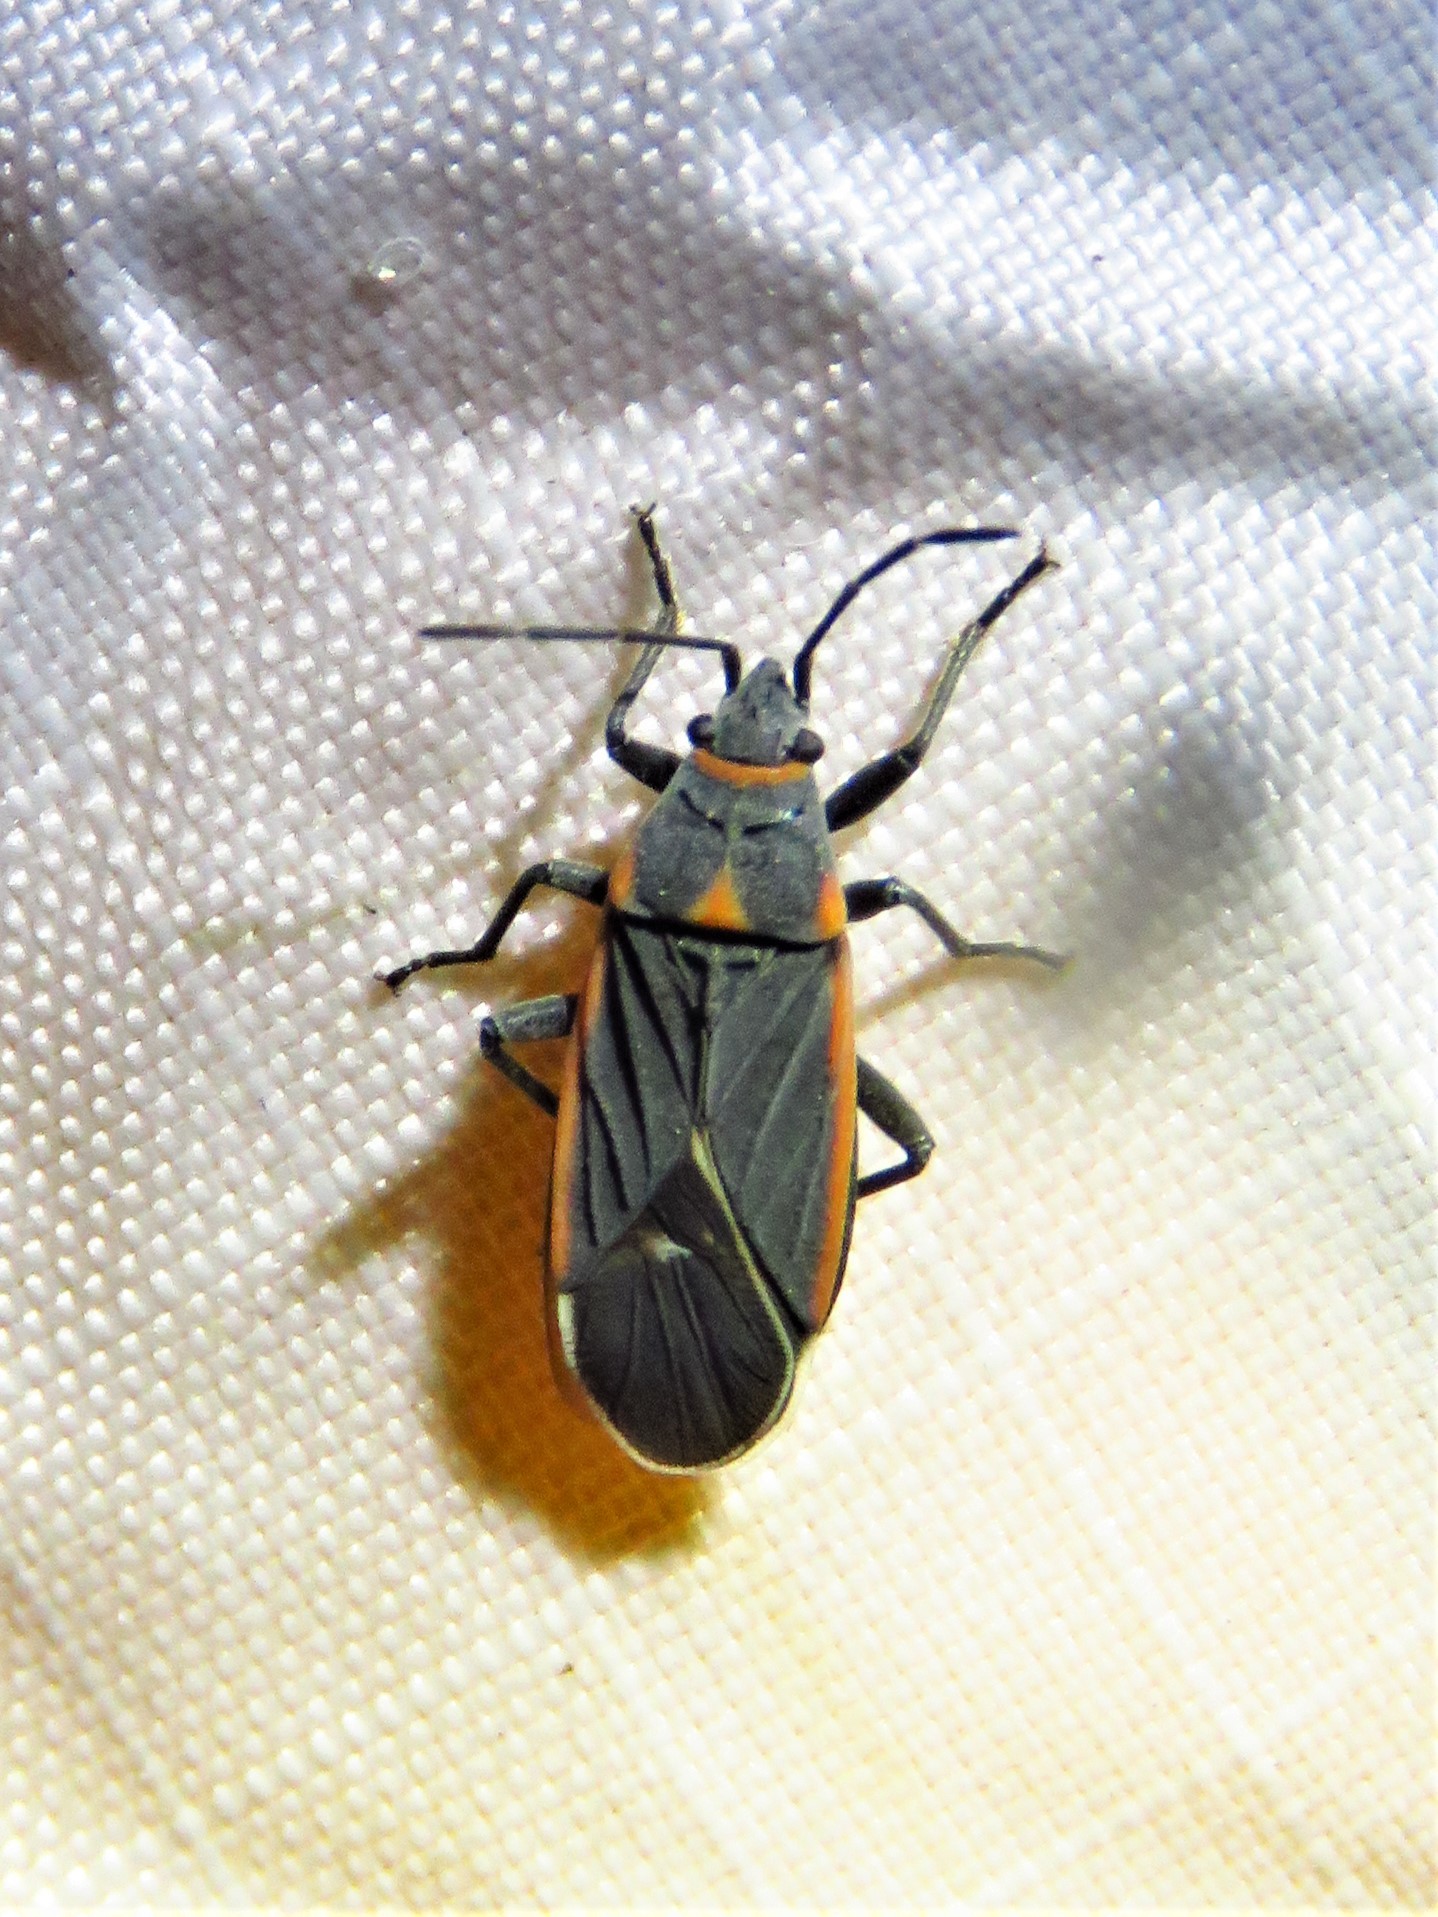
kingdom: Animalia
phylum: Arthropoda
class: Insecta
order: Hemiptera
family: Lygaeidae
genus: Melacoryphus
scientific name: Melacoryphus lateralis
